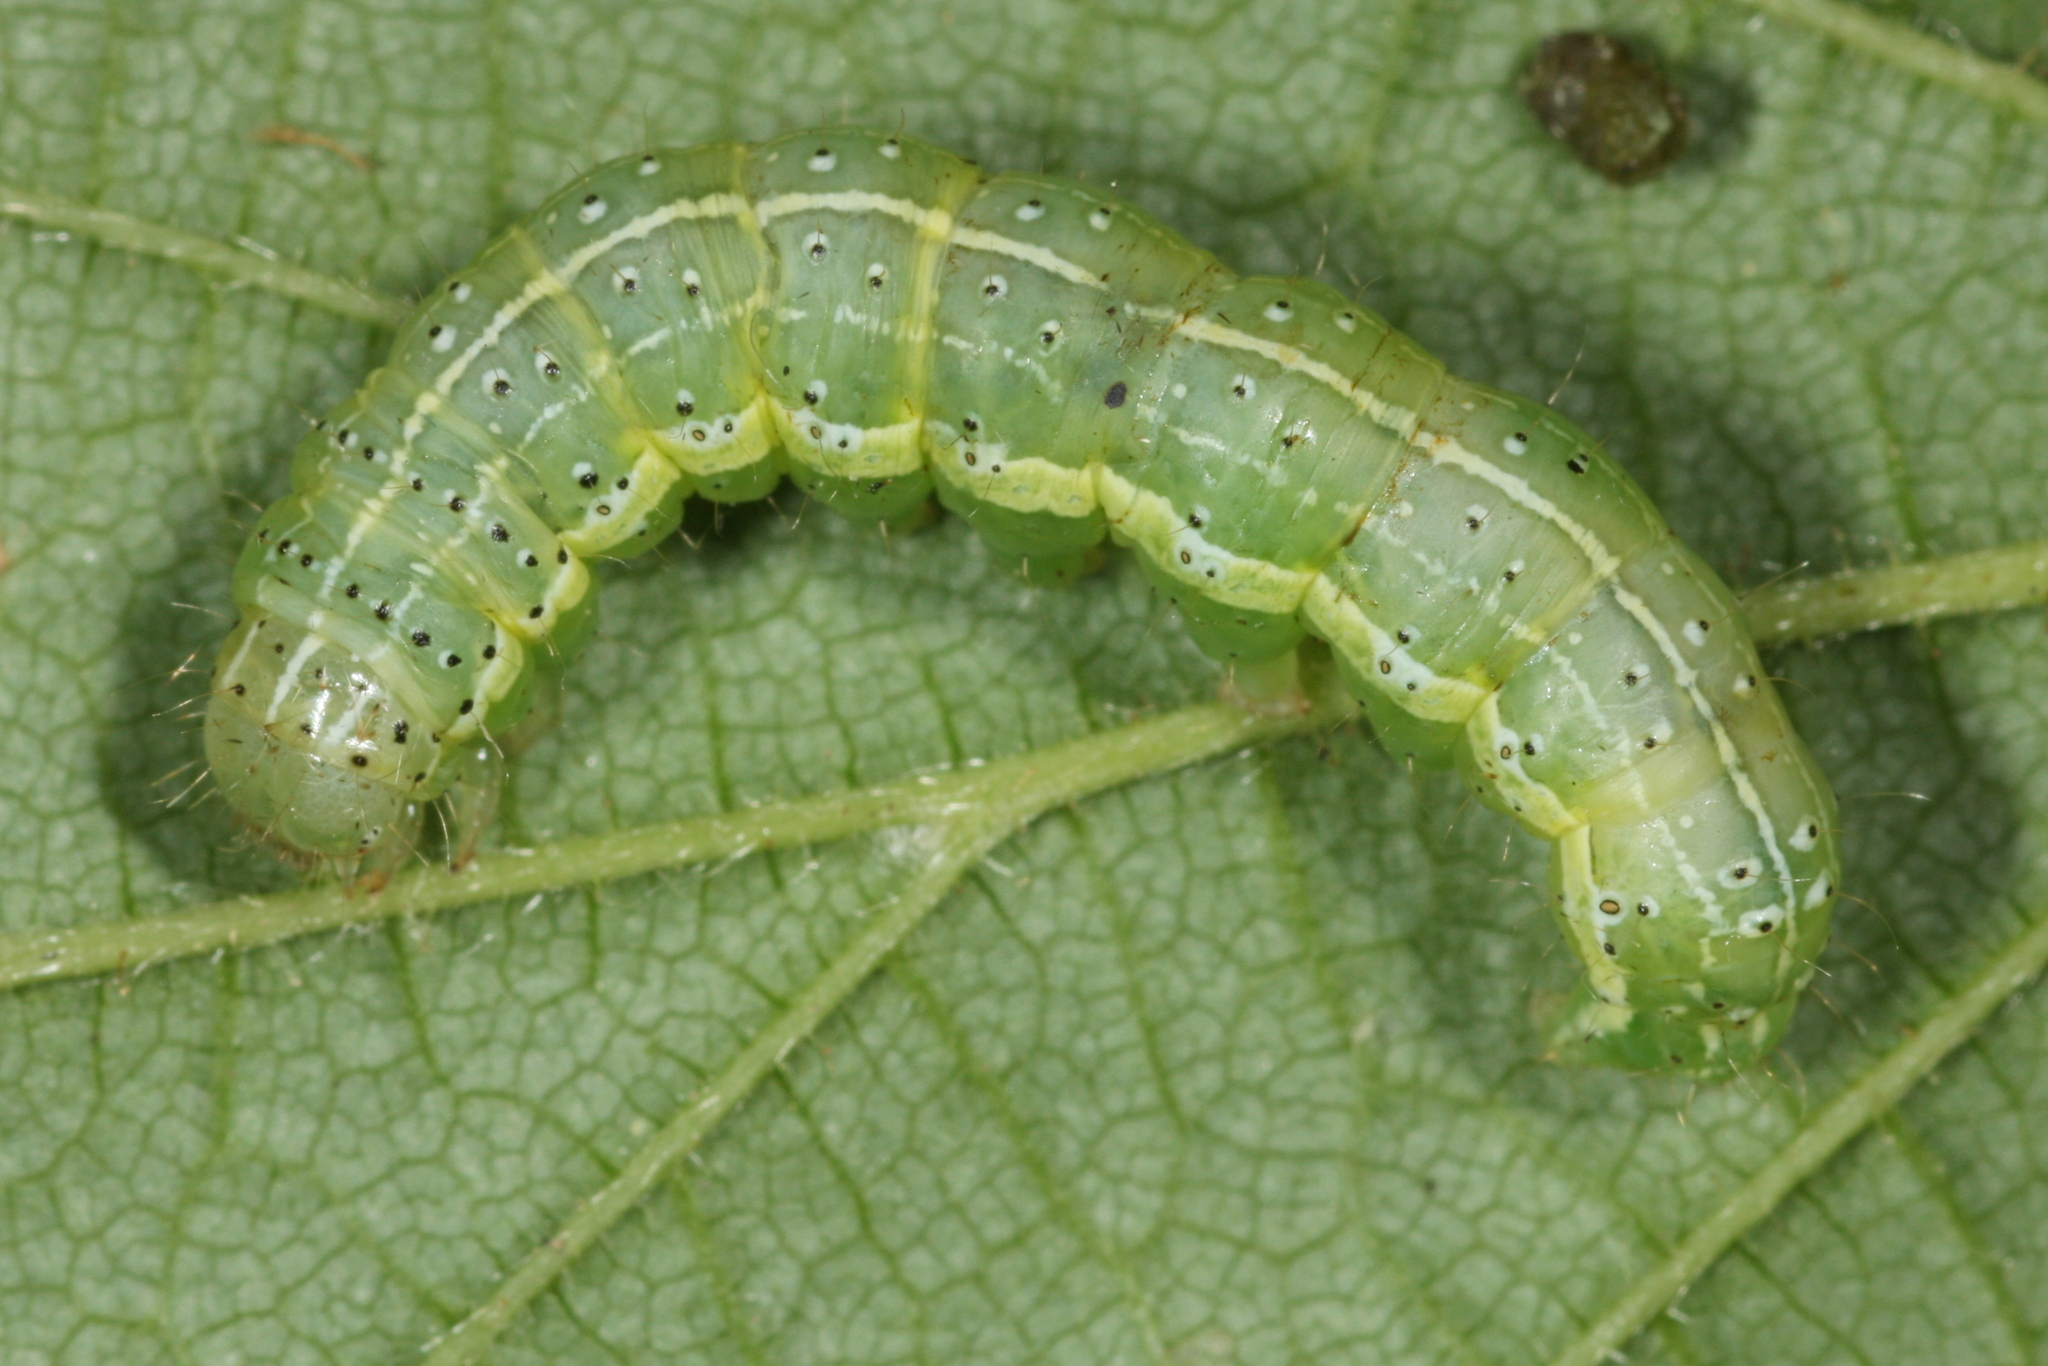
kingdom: Animalia
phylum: Arthropoda
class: Insecta
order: Lepidoptera
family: Noctuidae
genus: Cosmia
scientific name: Cosmia trapezina
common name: Dun-bar
